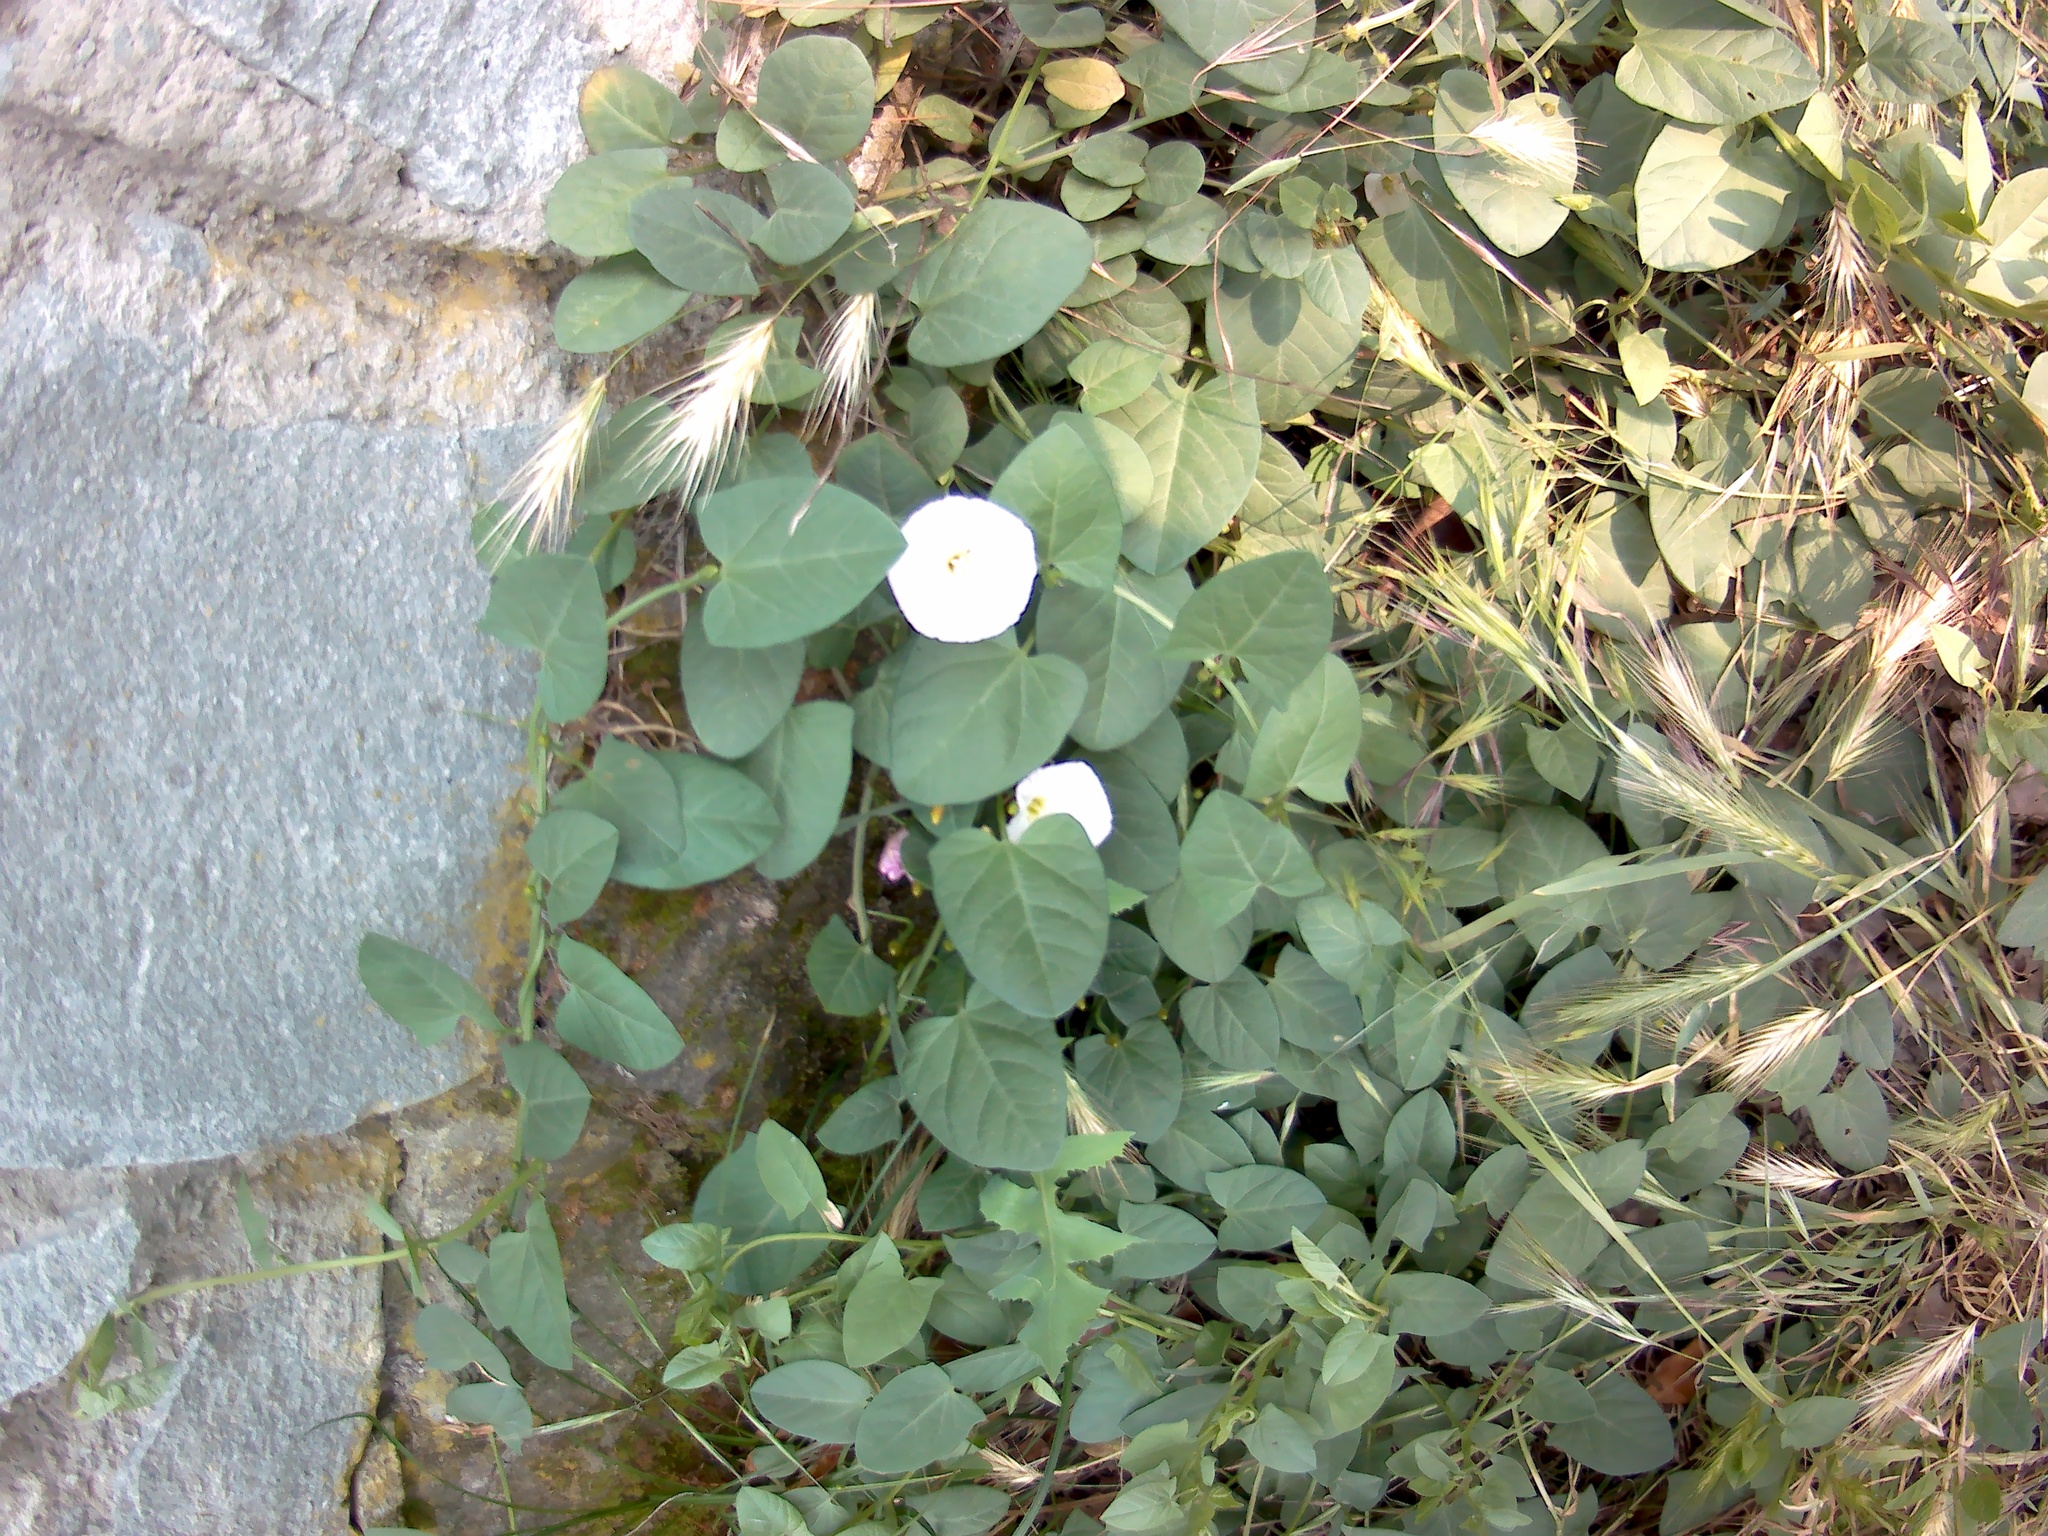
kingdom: Plantae
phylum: Tracheophyta
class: Magnoliopsida
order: Solanales
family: Convolvulaceae
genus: Convolvulus
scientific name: Convolvulus arvensis
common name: Field bindweed
